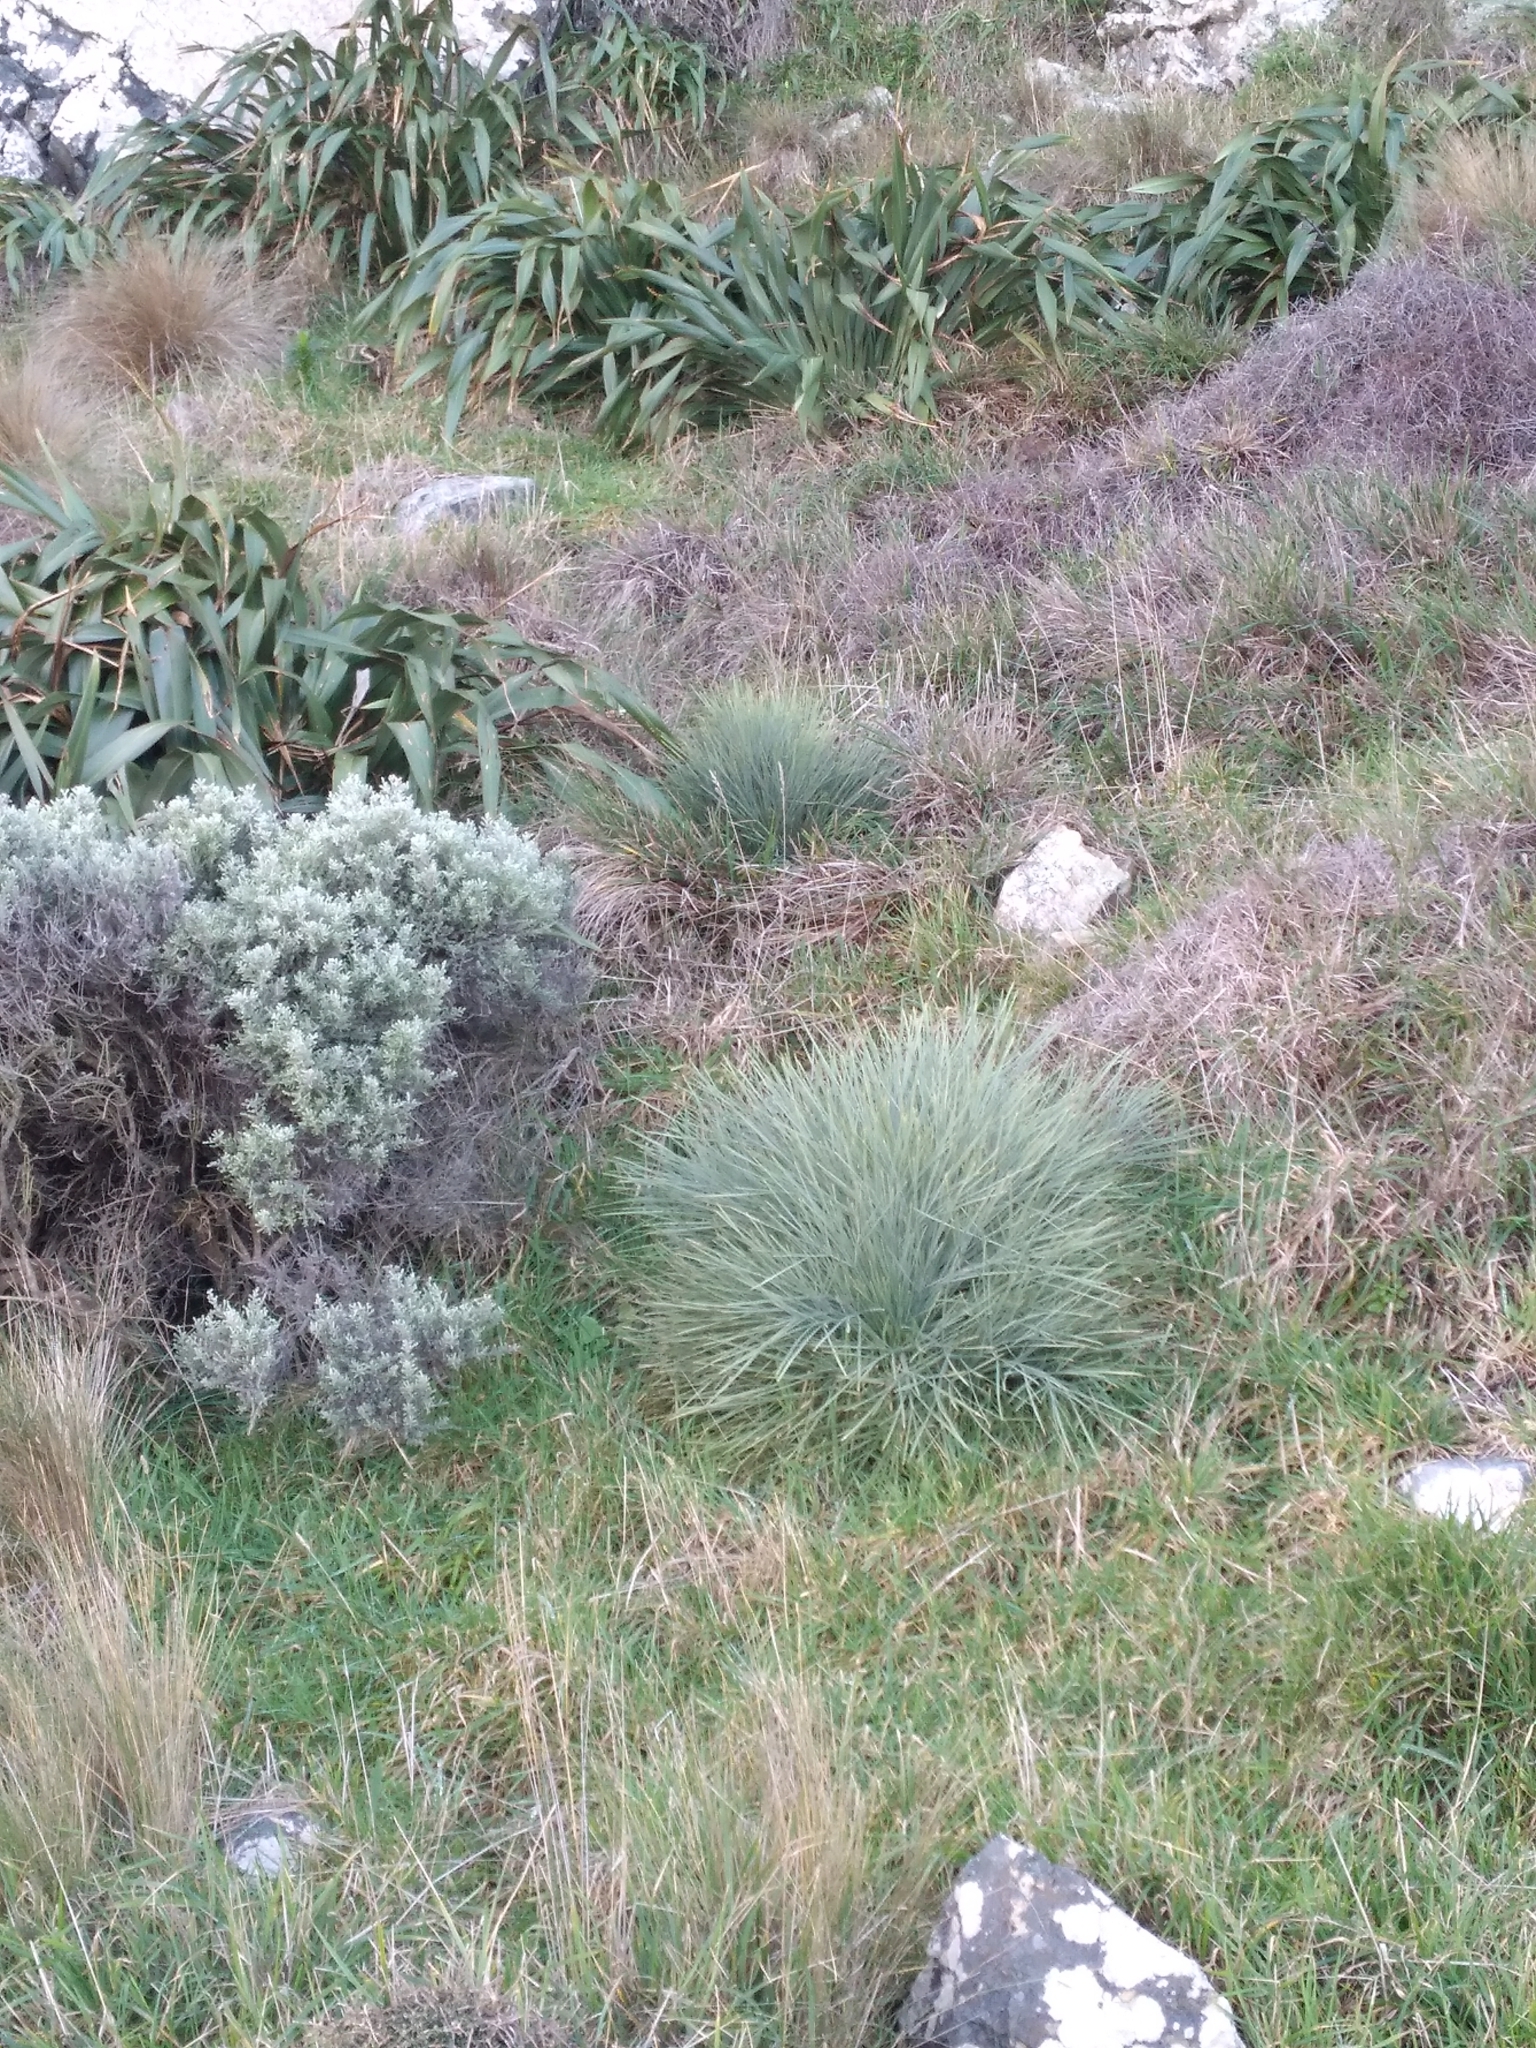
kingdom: Plantae
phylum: Tracheophyta
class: Magnoliopsida
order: Apiales
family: Apiaceae
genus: Aciphylla
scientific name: Aciphylla squarrosa
